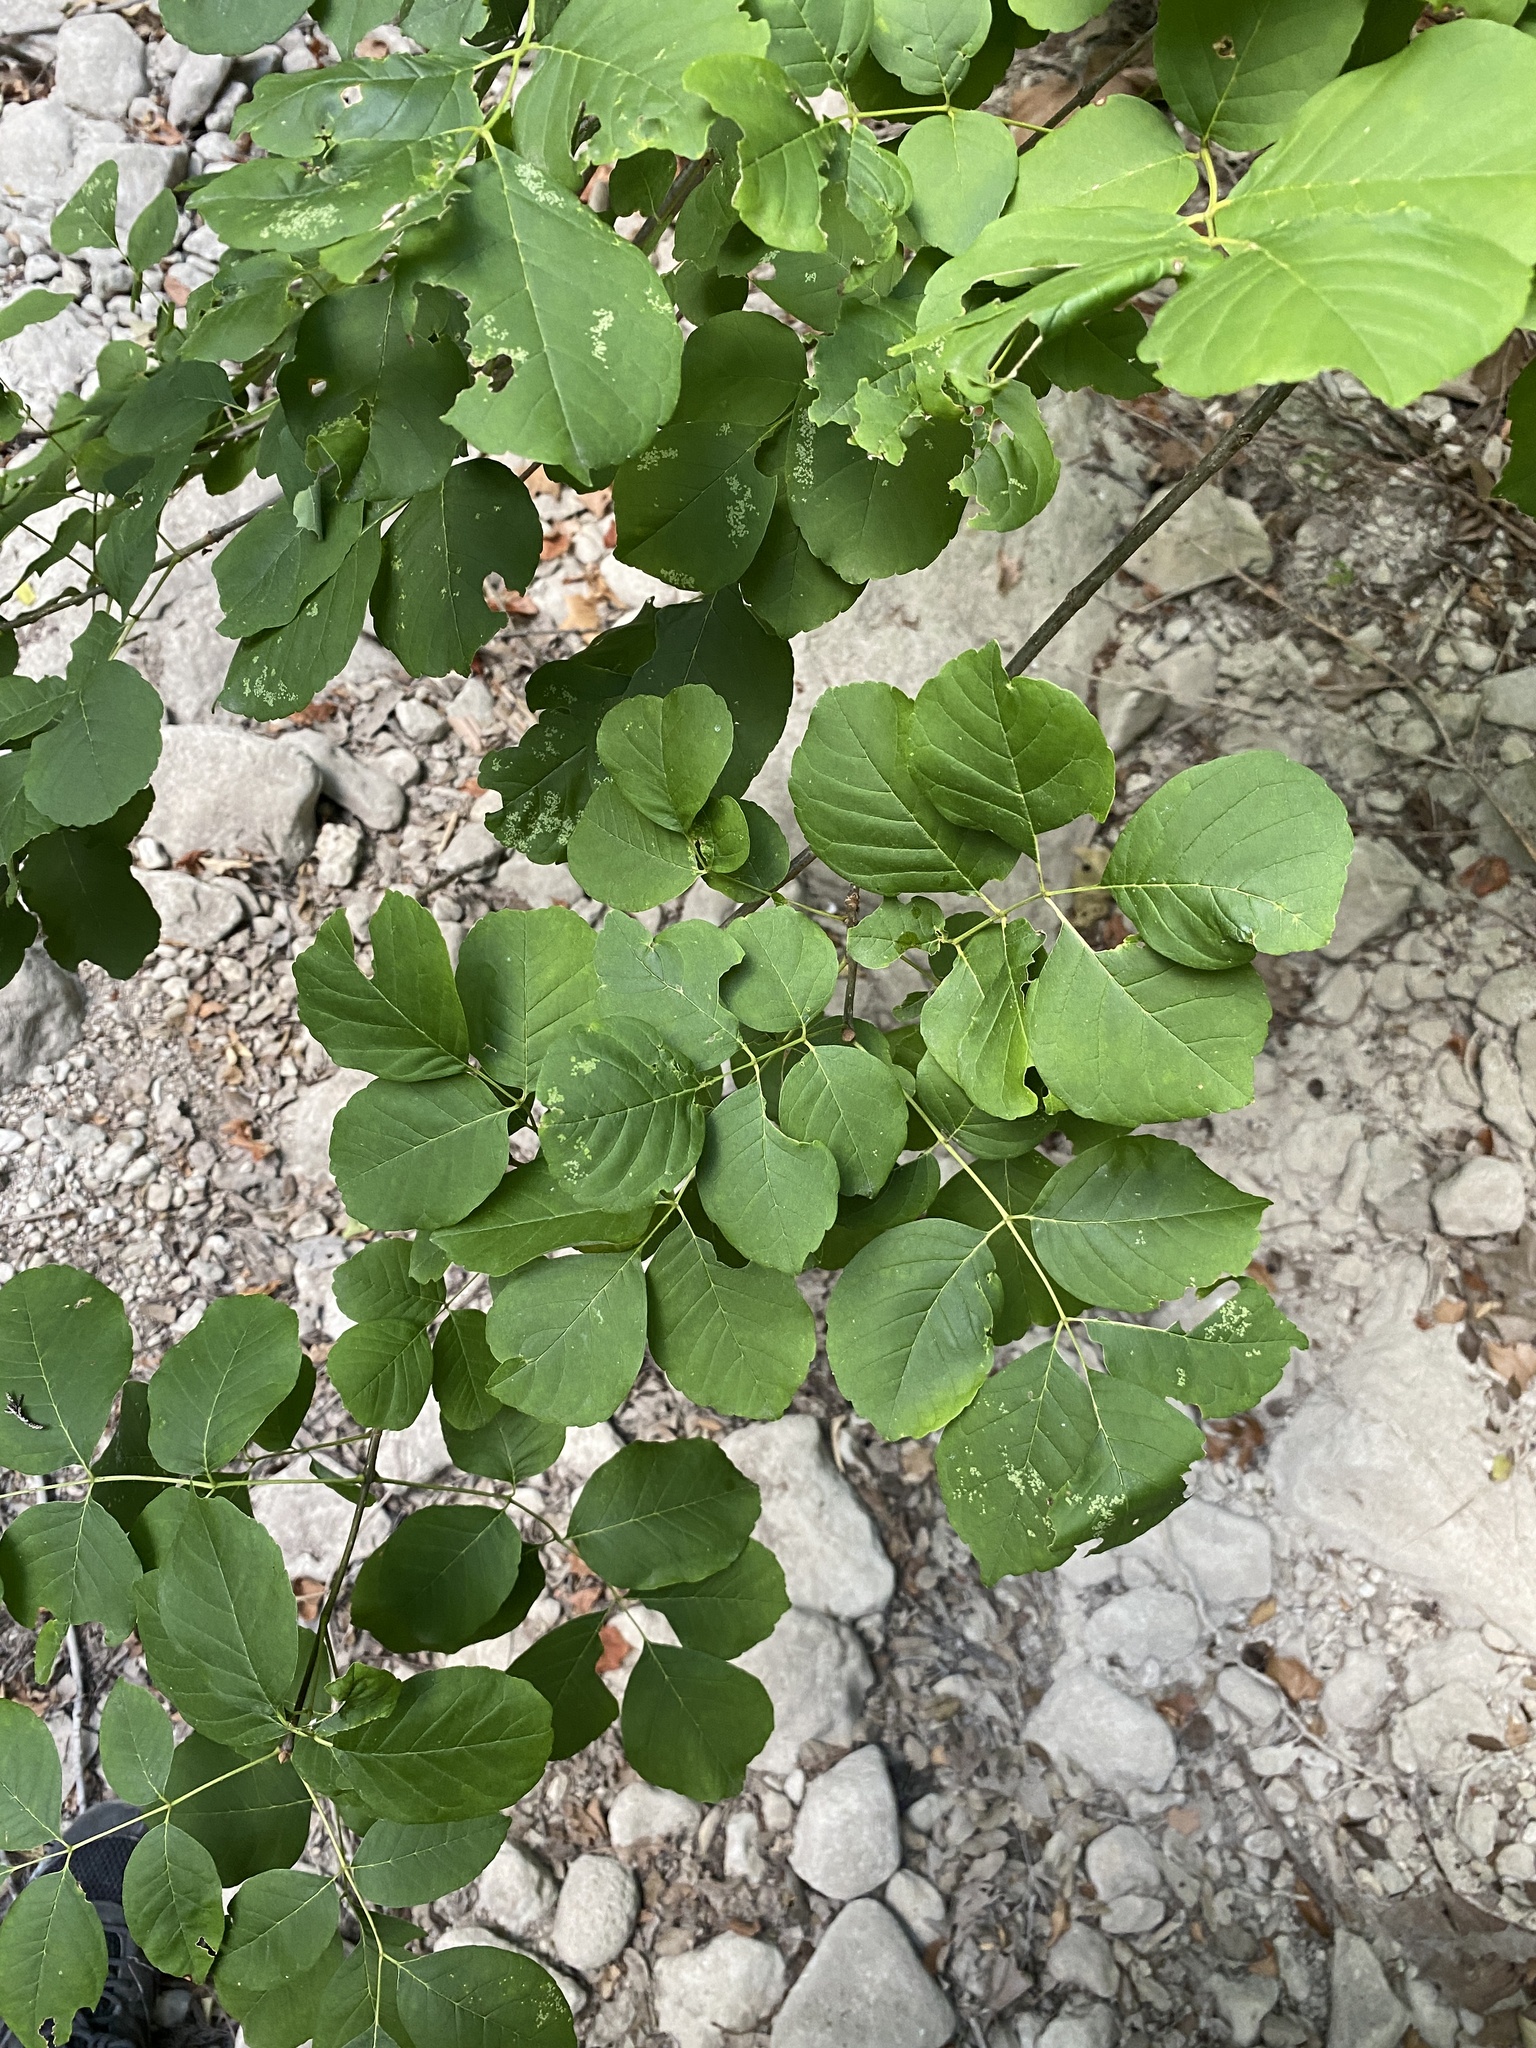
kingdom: Plantae
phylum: Tracheophyta
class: Magnoliopsida
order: Lamiales
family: Oleaceae
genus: Fraxinus
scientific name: Fraxinus albicans
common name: Texas ash
